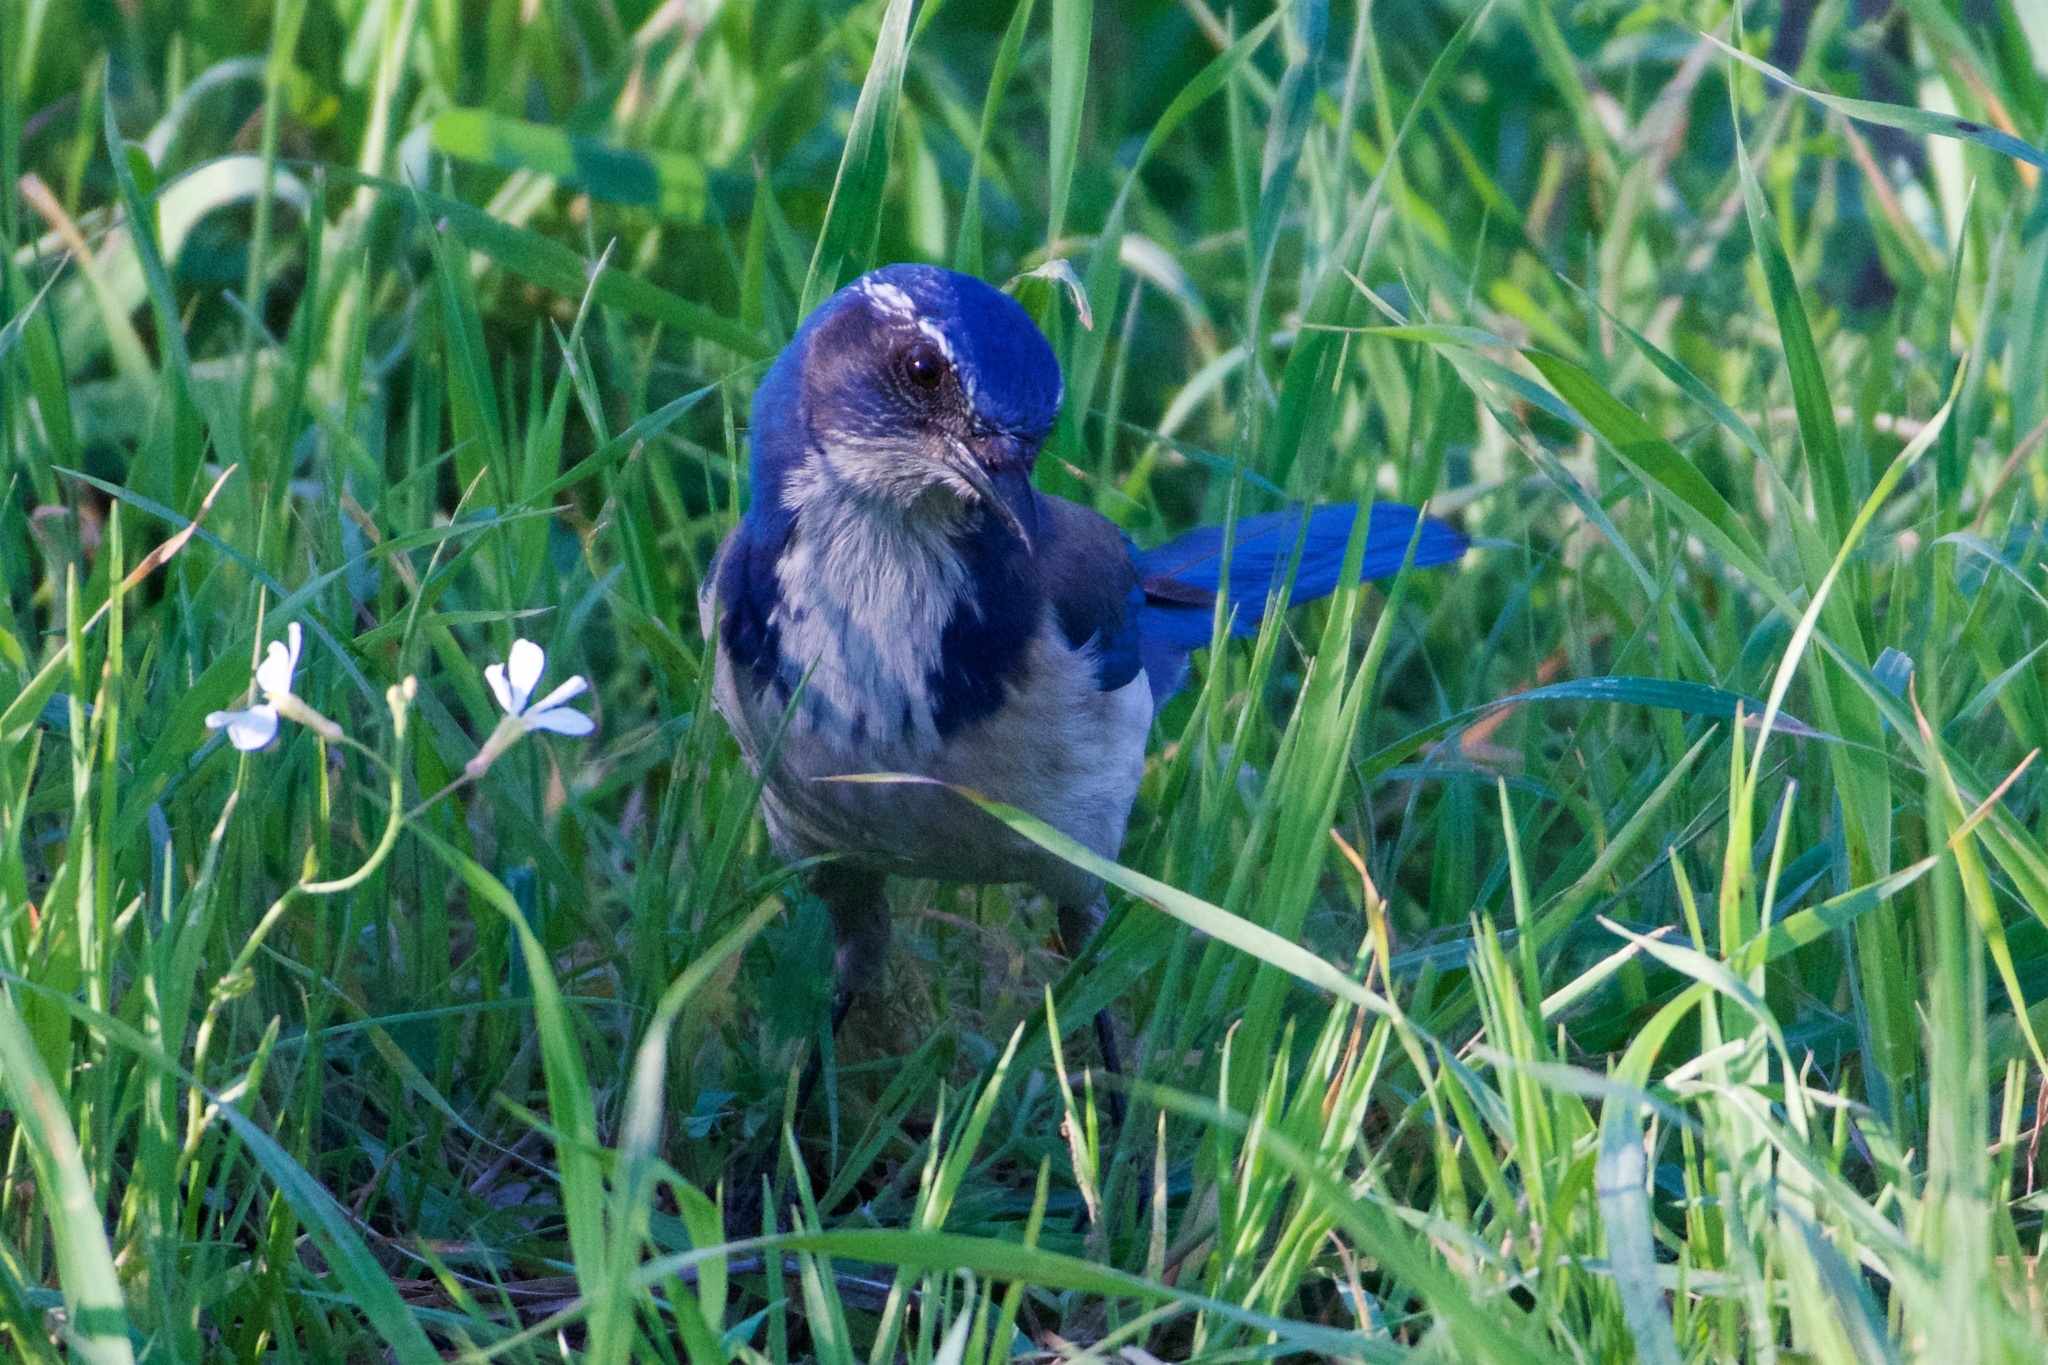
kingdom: Animalia
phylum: Chordata
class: Aves
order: Passeriformes
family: Corvidae
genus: Aphelocoma
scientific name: Aphelocoma californica
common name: California scrub-jay
